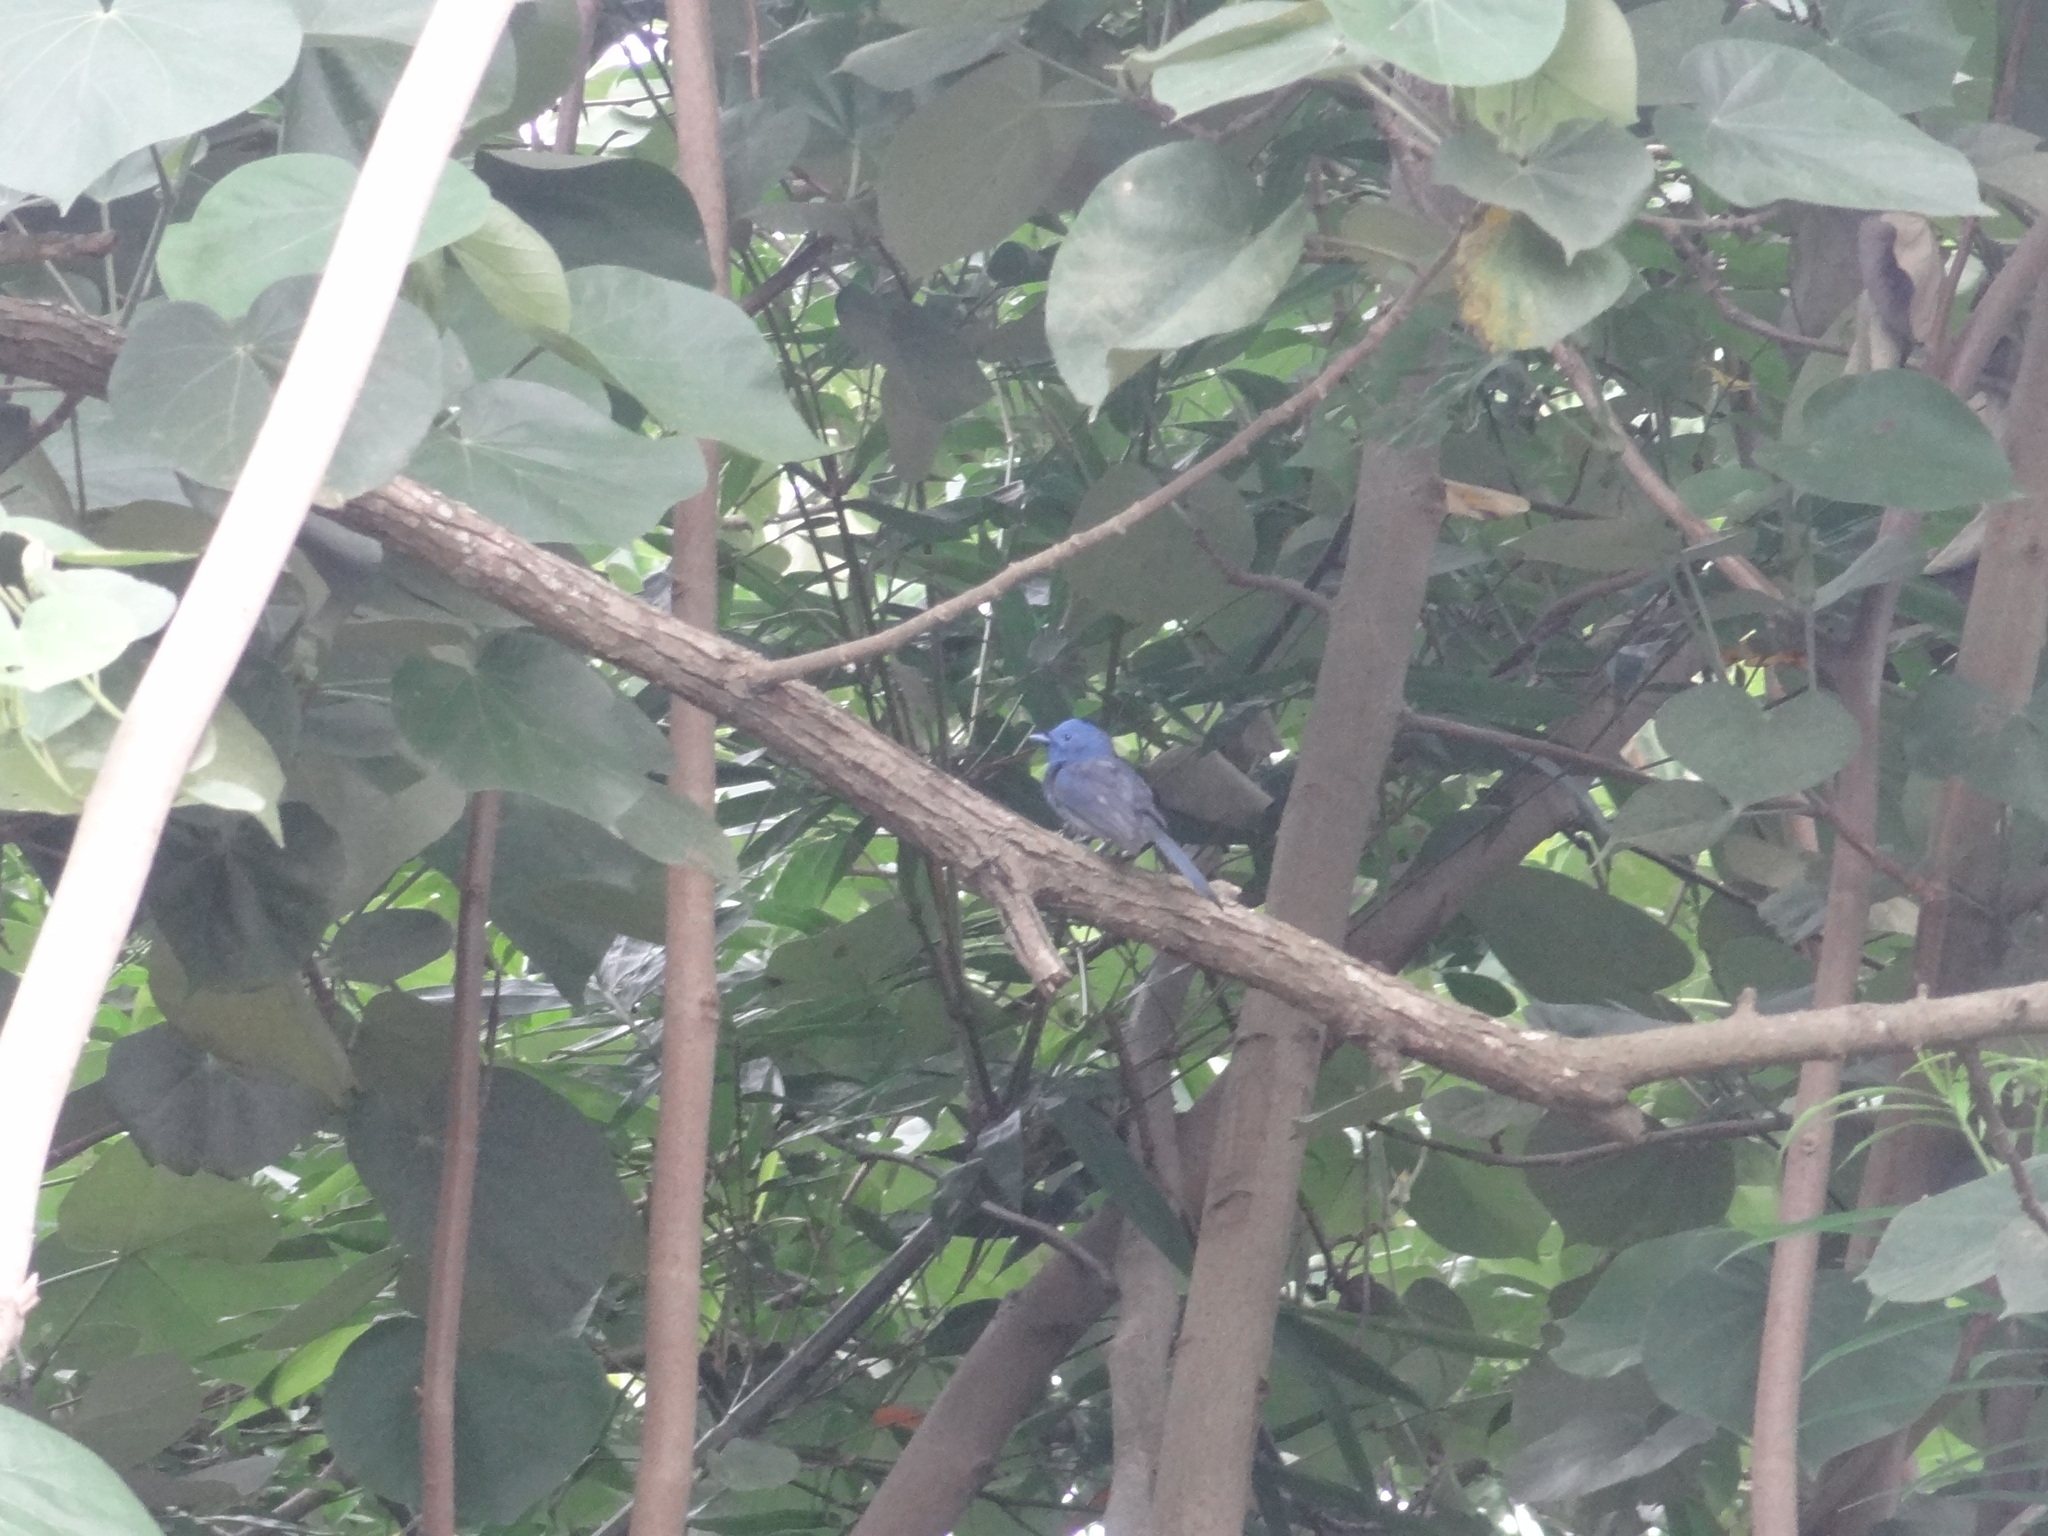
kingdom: Animalia
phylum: Chordata
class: Aves
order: Passeriformes
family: Monarchidae
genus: Hypothymis
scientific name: Hypothymis azurea
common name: Black-naped monarch
